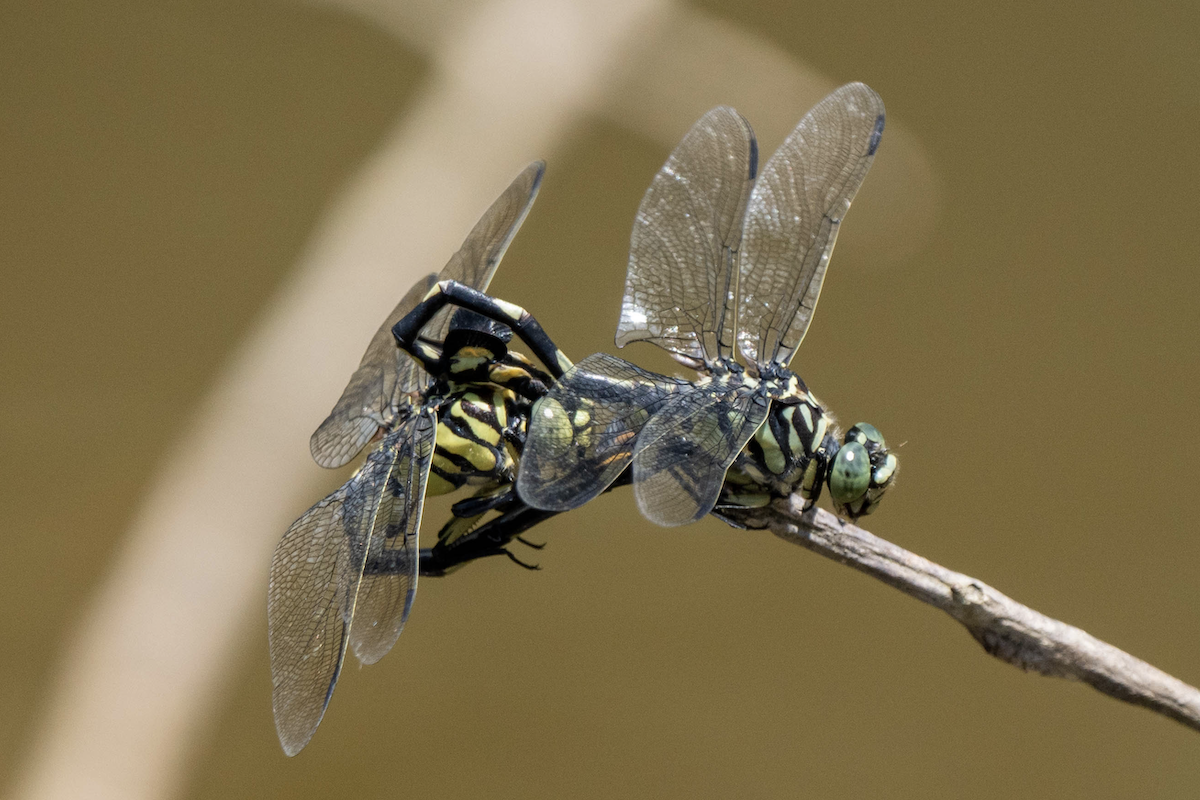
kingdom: Animalia
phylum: Arthropoda
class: Insecta
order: Odonata
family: Gomphidae
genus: Sinictinogomphus
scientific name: Sinictinogomphus clavatus
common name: Golden flangetail
